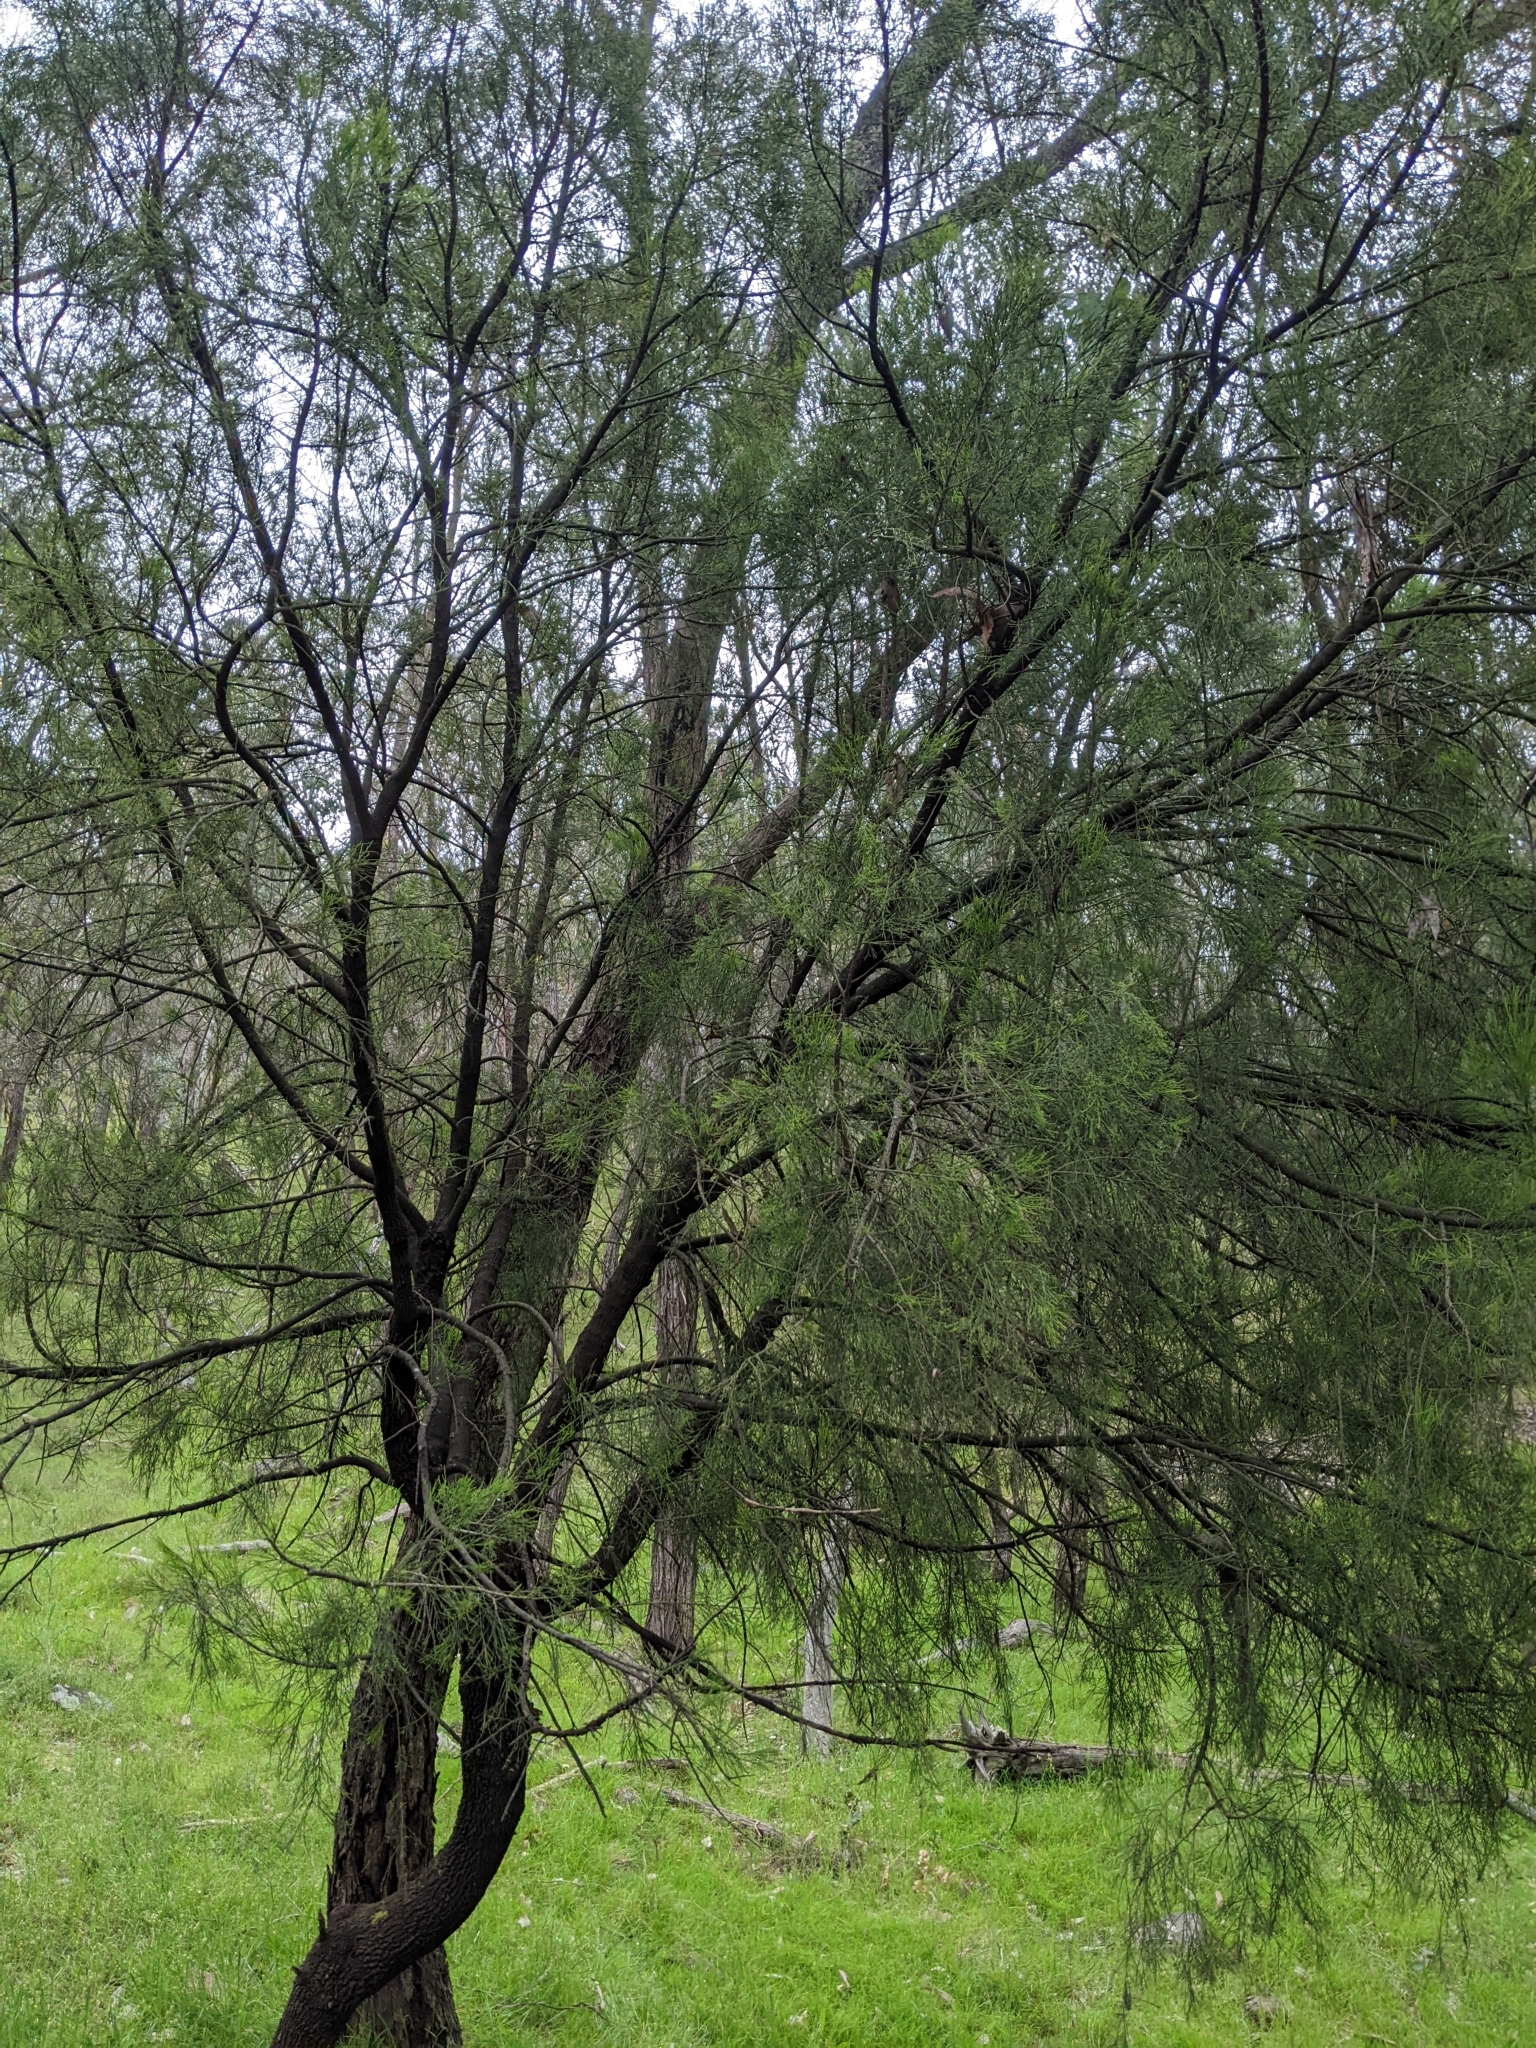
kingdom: Plantae
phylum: Tracheophyta
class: Magnoliopsida
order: Santalales
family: Santalaceae
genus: Exocarpos
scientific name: Exocarpos cupressiformis
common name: Cherry ballart
